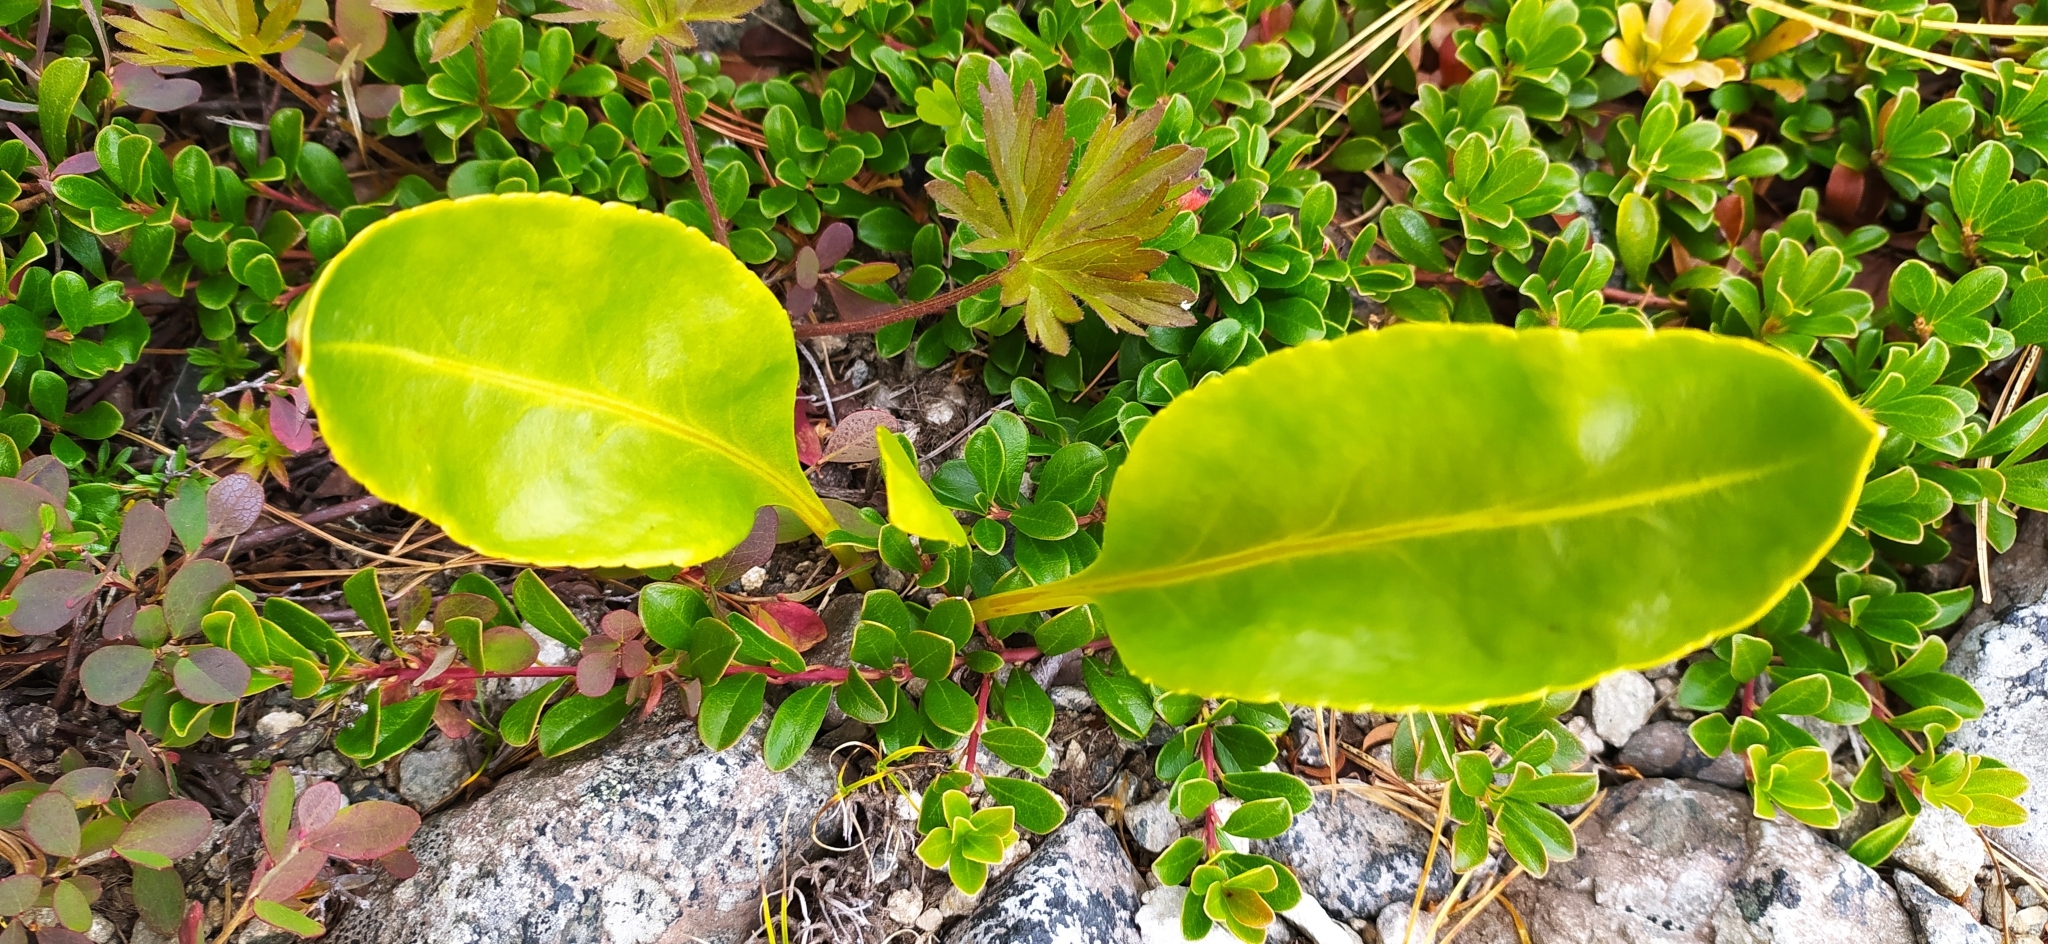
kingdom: Plantae
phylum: Tracheophyta
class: Magnoliopsida
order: Lamiales
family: Plantaginaceae
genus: Lagotis
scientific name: Lagotis uralensis
